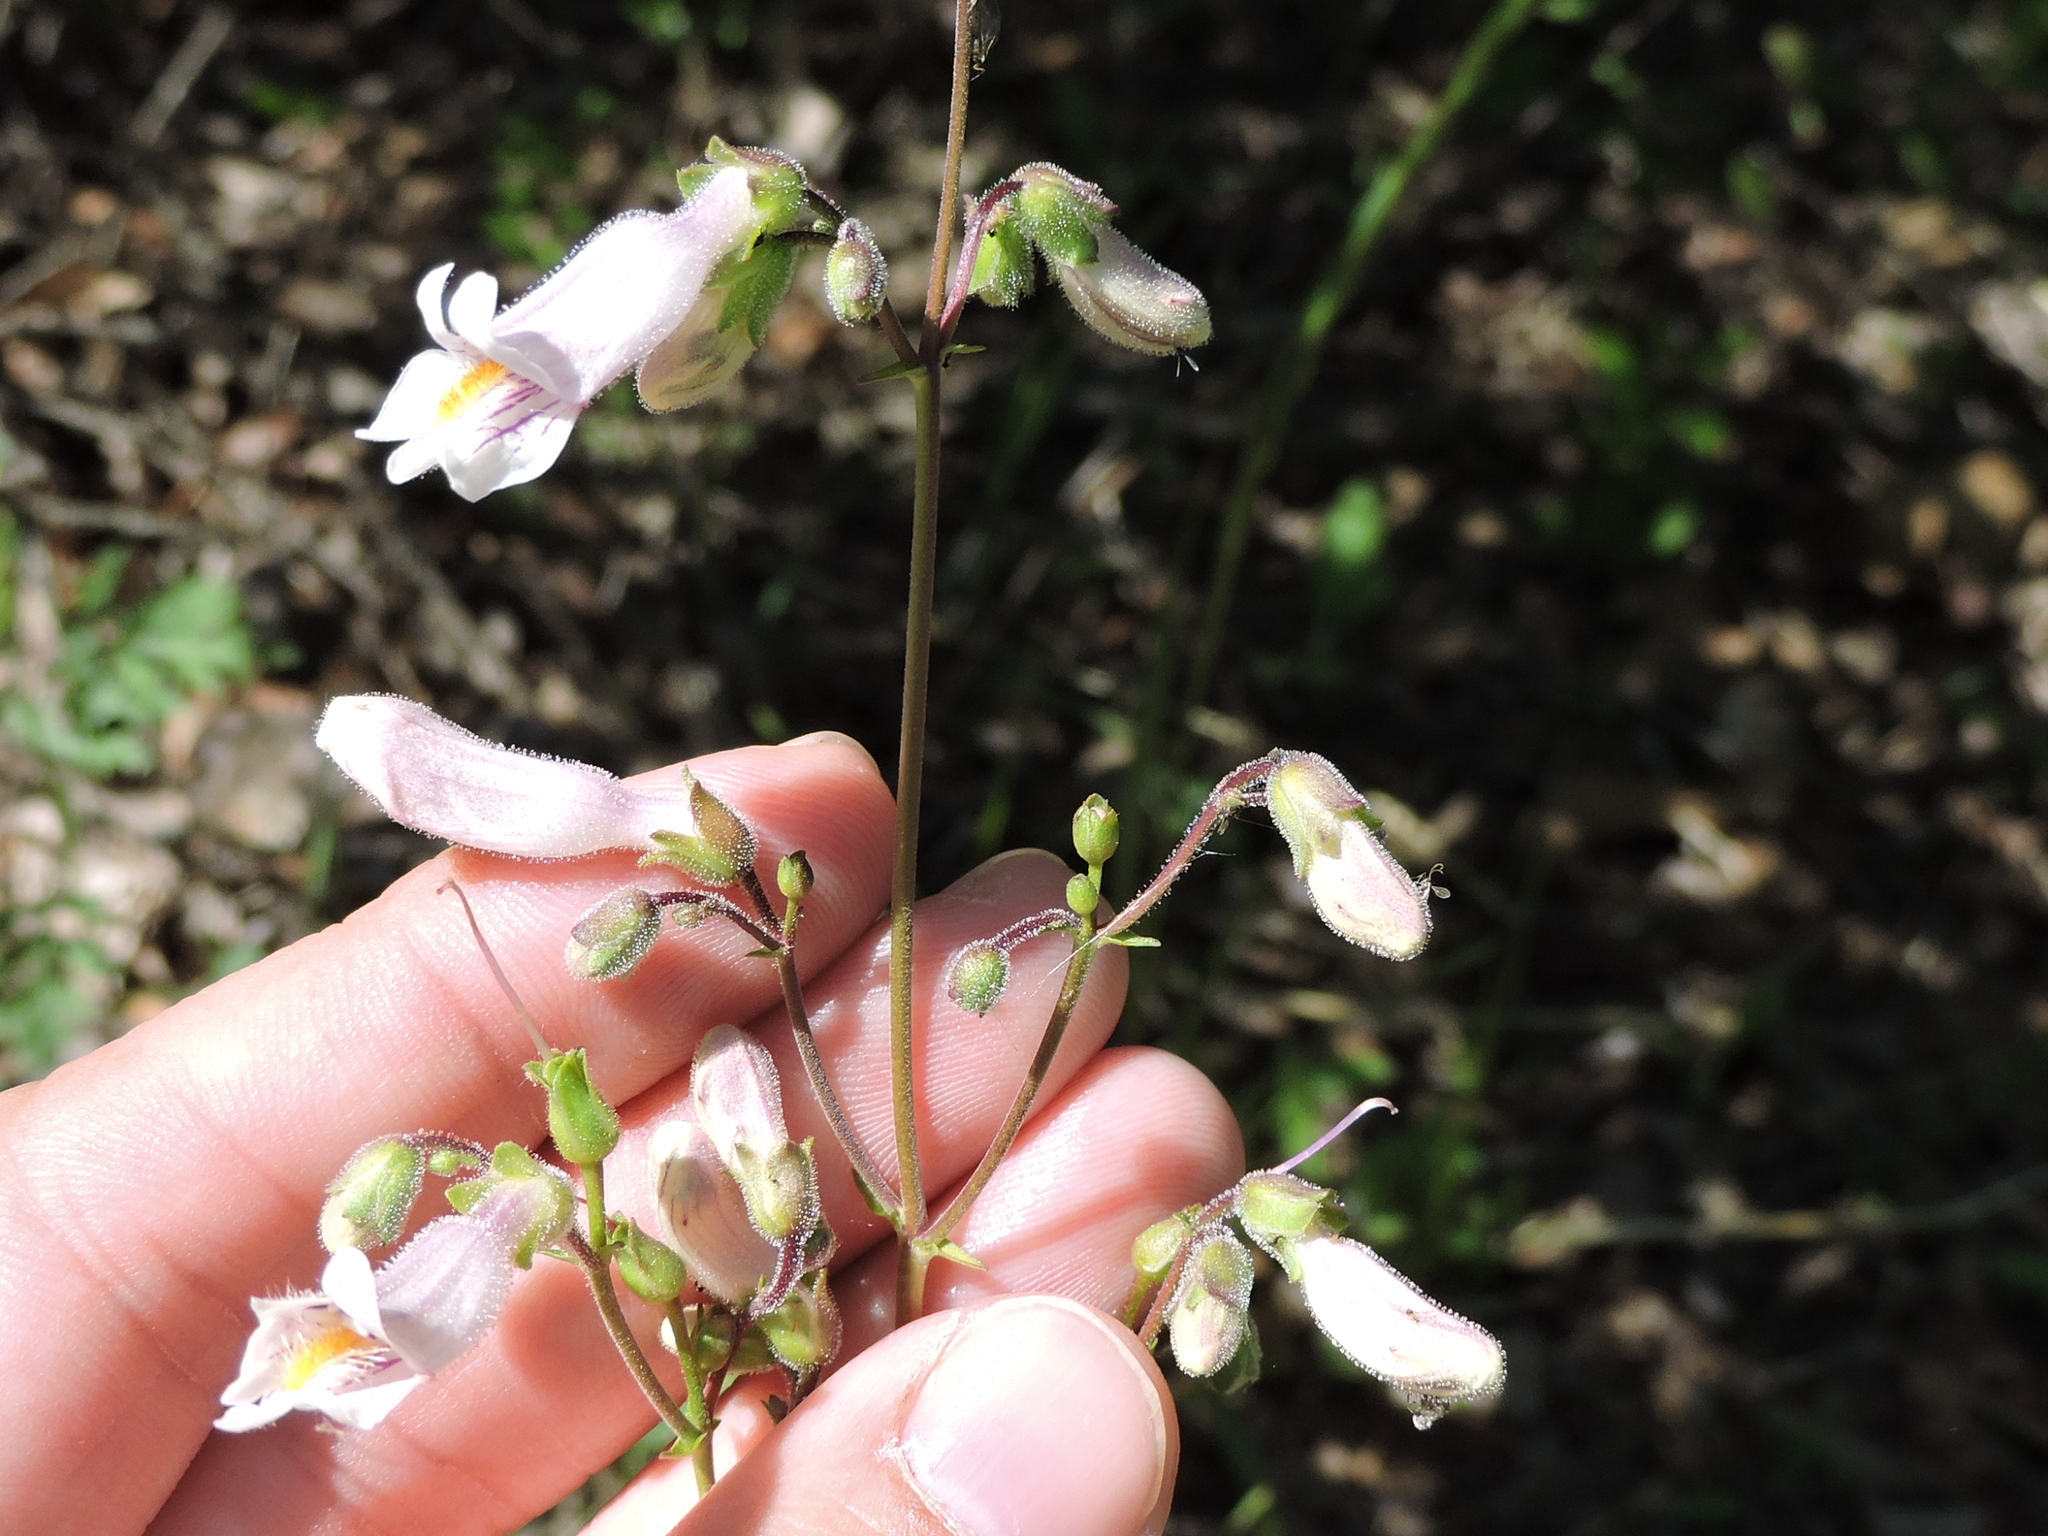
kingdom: Plantae
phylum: Tracheophyta
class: Magnoliopsida
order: Lamiales
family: Plantaginaceae
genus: Penstemon
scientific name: Penstemon laxiflorus
